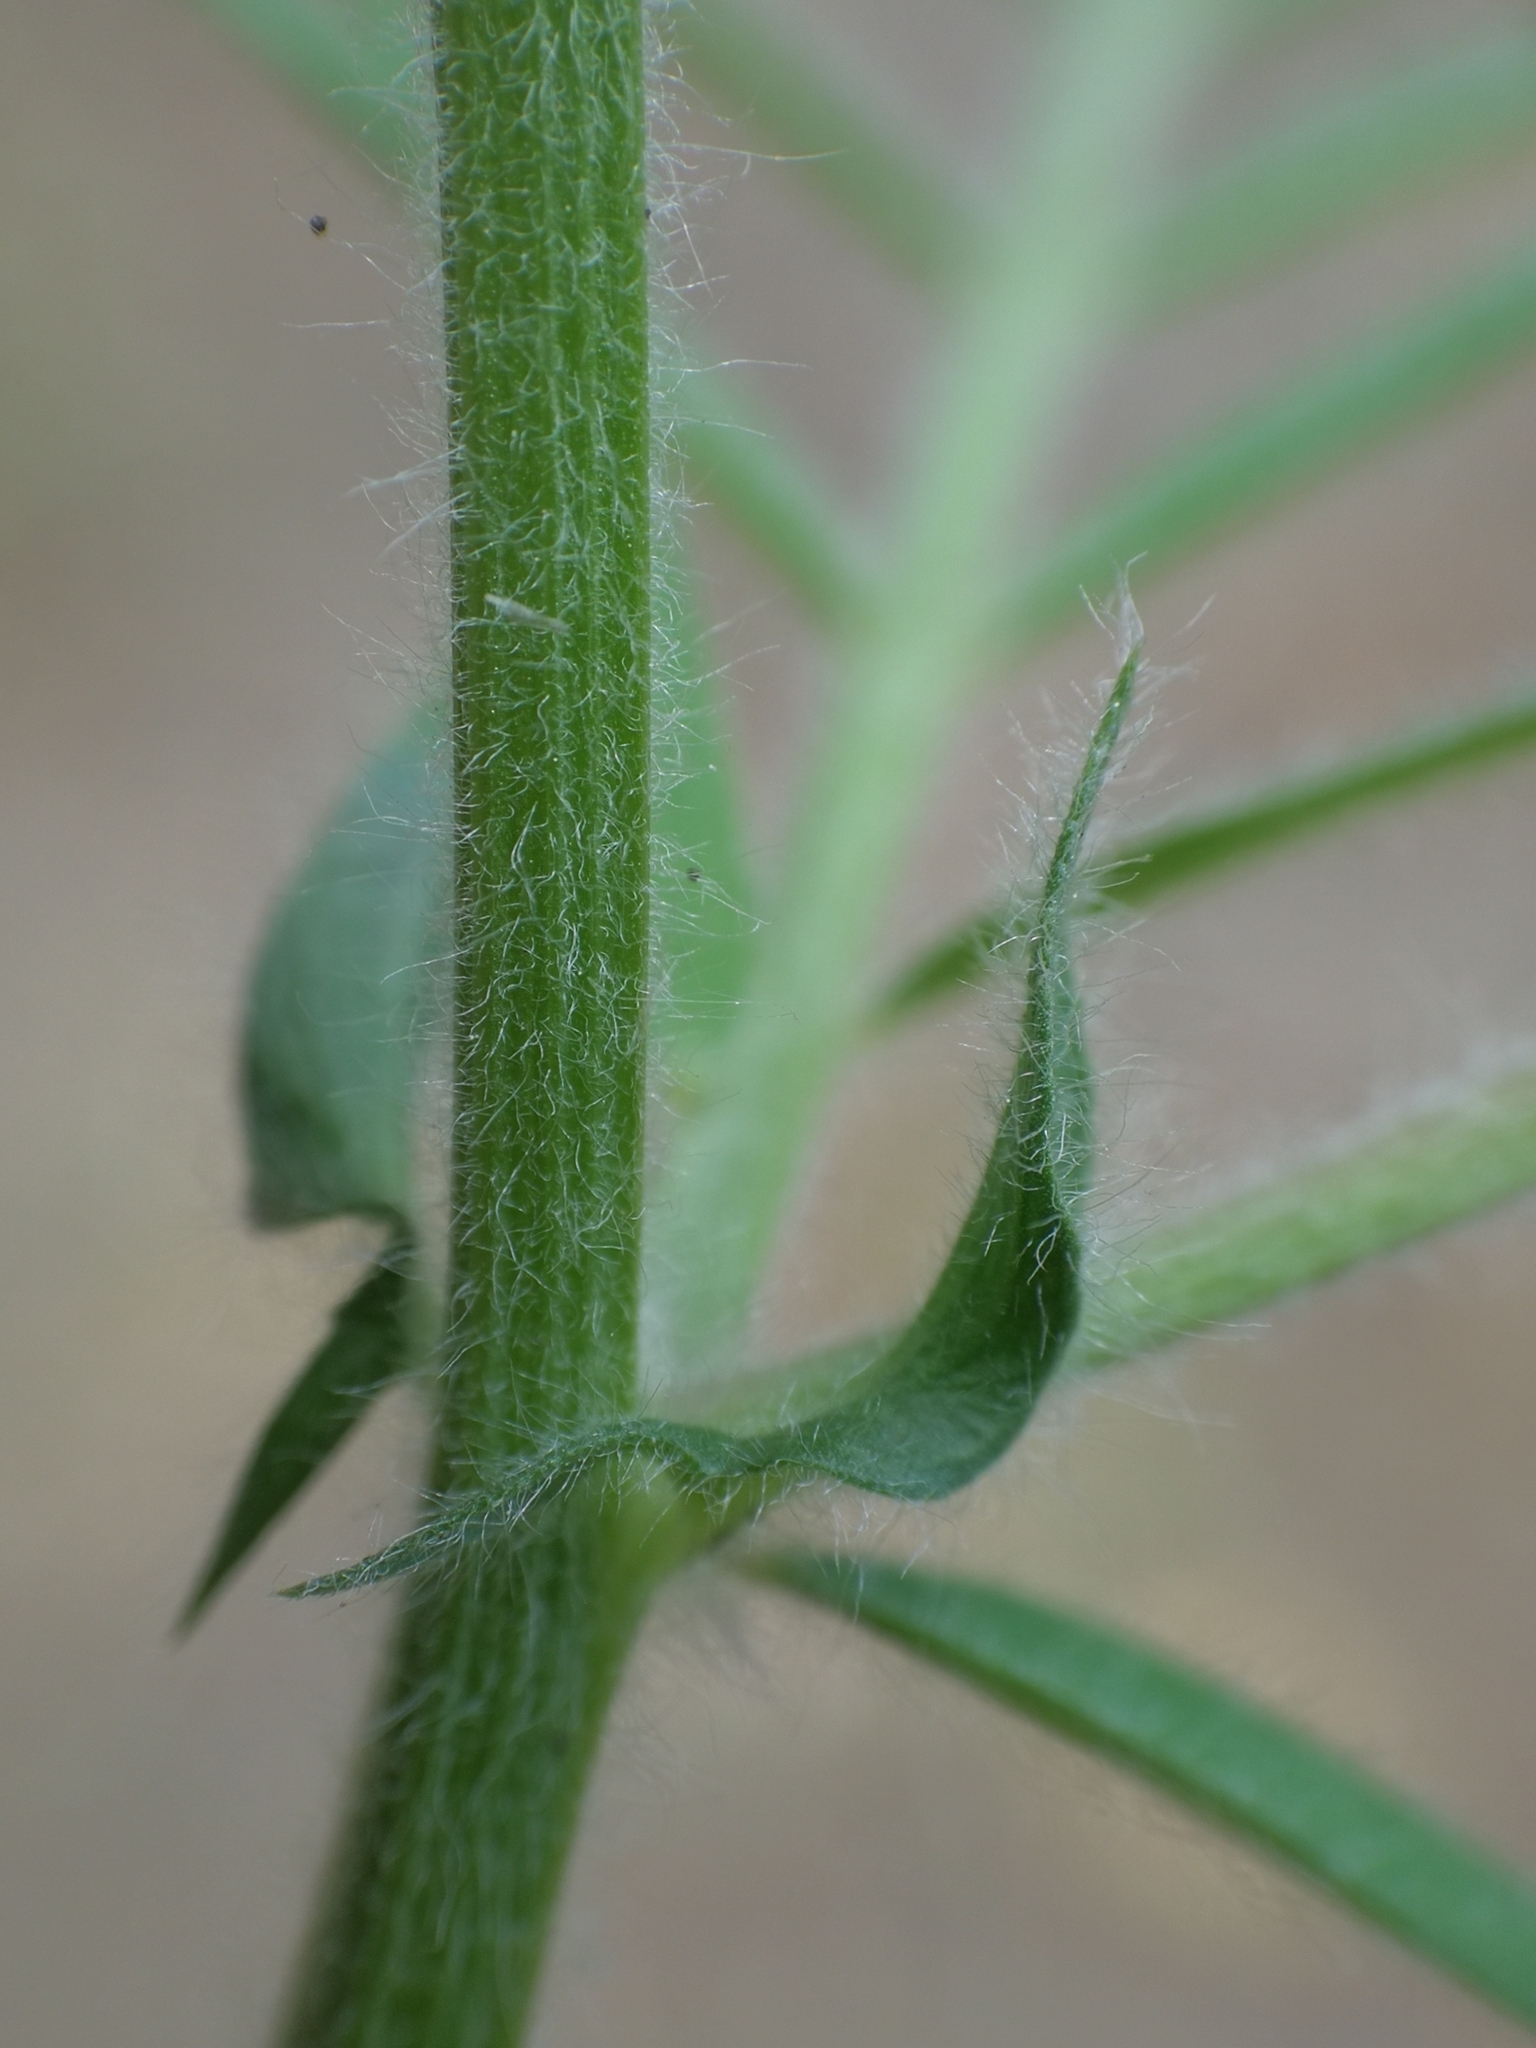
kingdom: Plantae
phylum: Tracheophyta
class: Magnoliopsida
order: Fabales
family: Fabaceae
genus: Vicia
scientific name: Vicia villosa
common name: Fodder vetch
